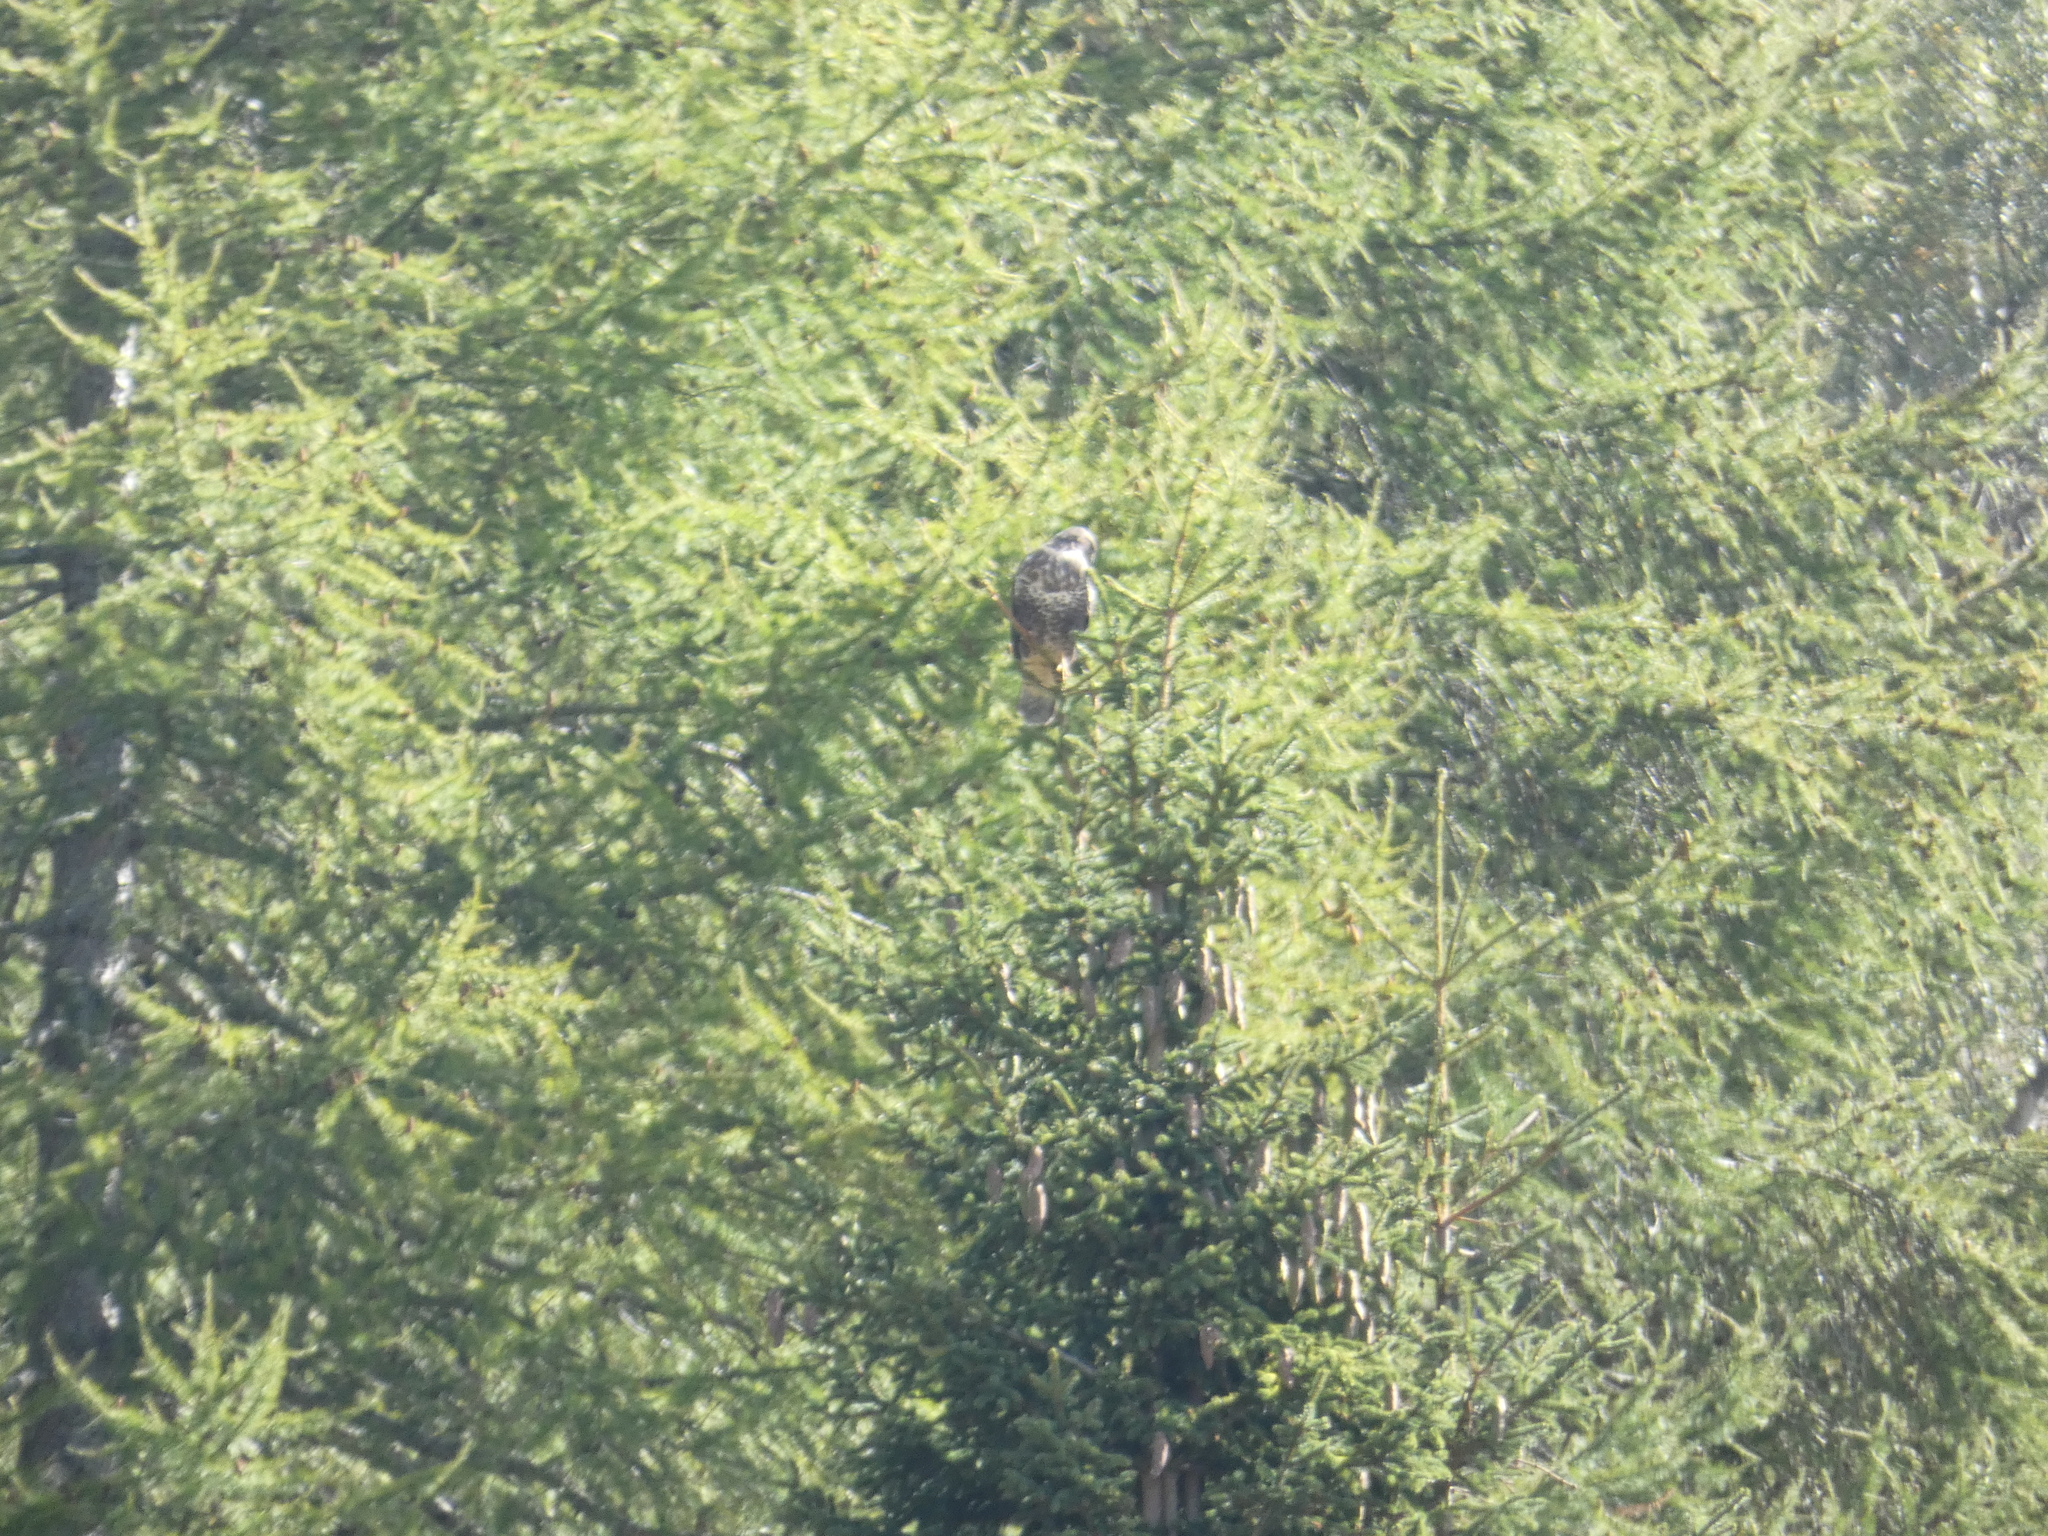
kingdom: Animalia
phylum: Chordata
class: Aves
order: Accipitriformes
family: Accipitridae
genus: Buteo
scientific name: Buteo buteo
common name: Common buzzard
